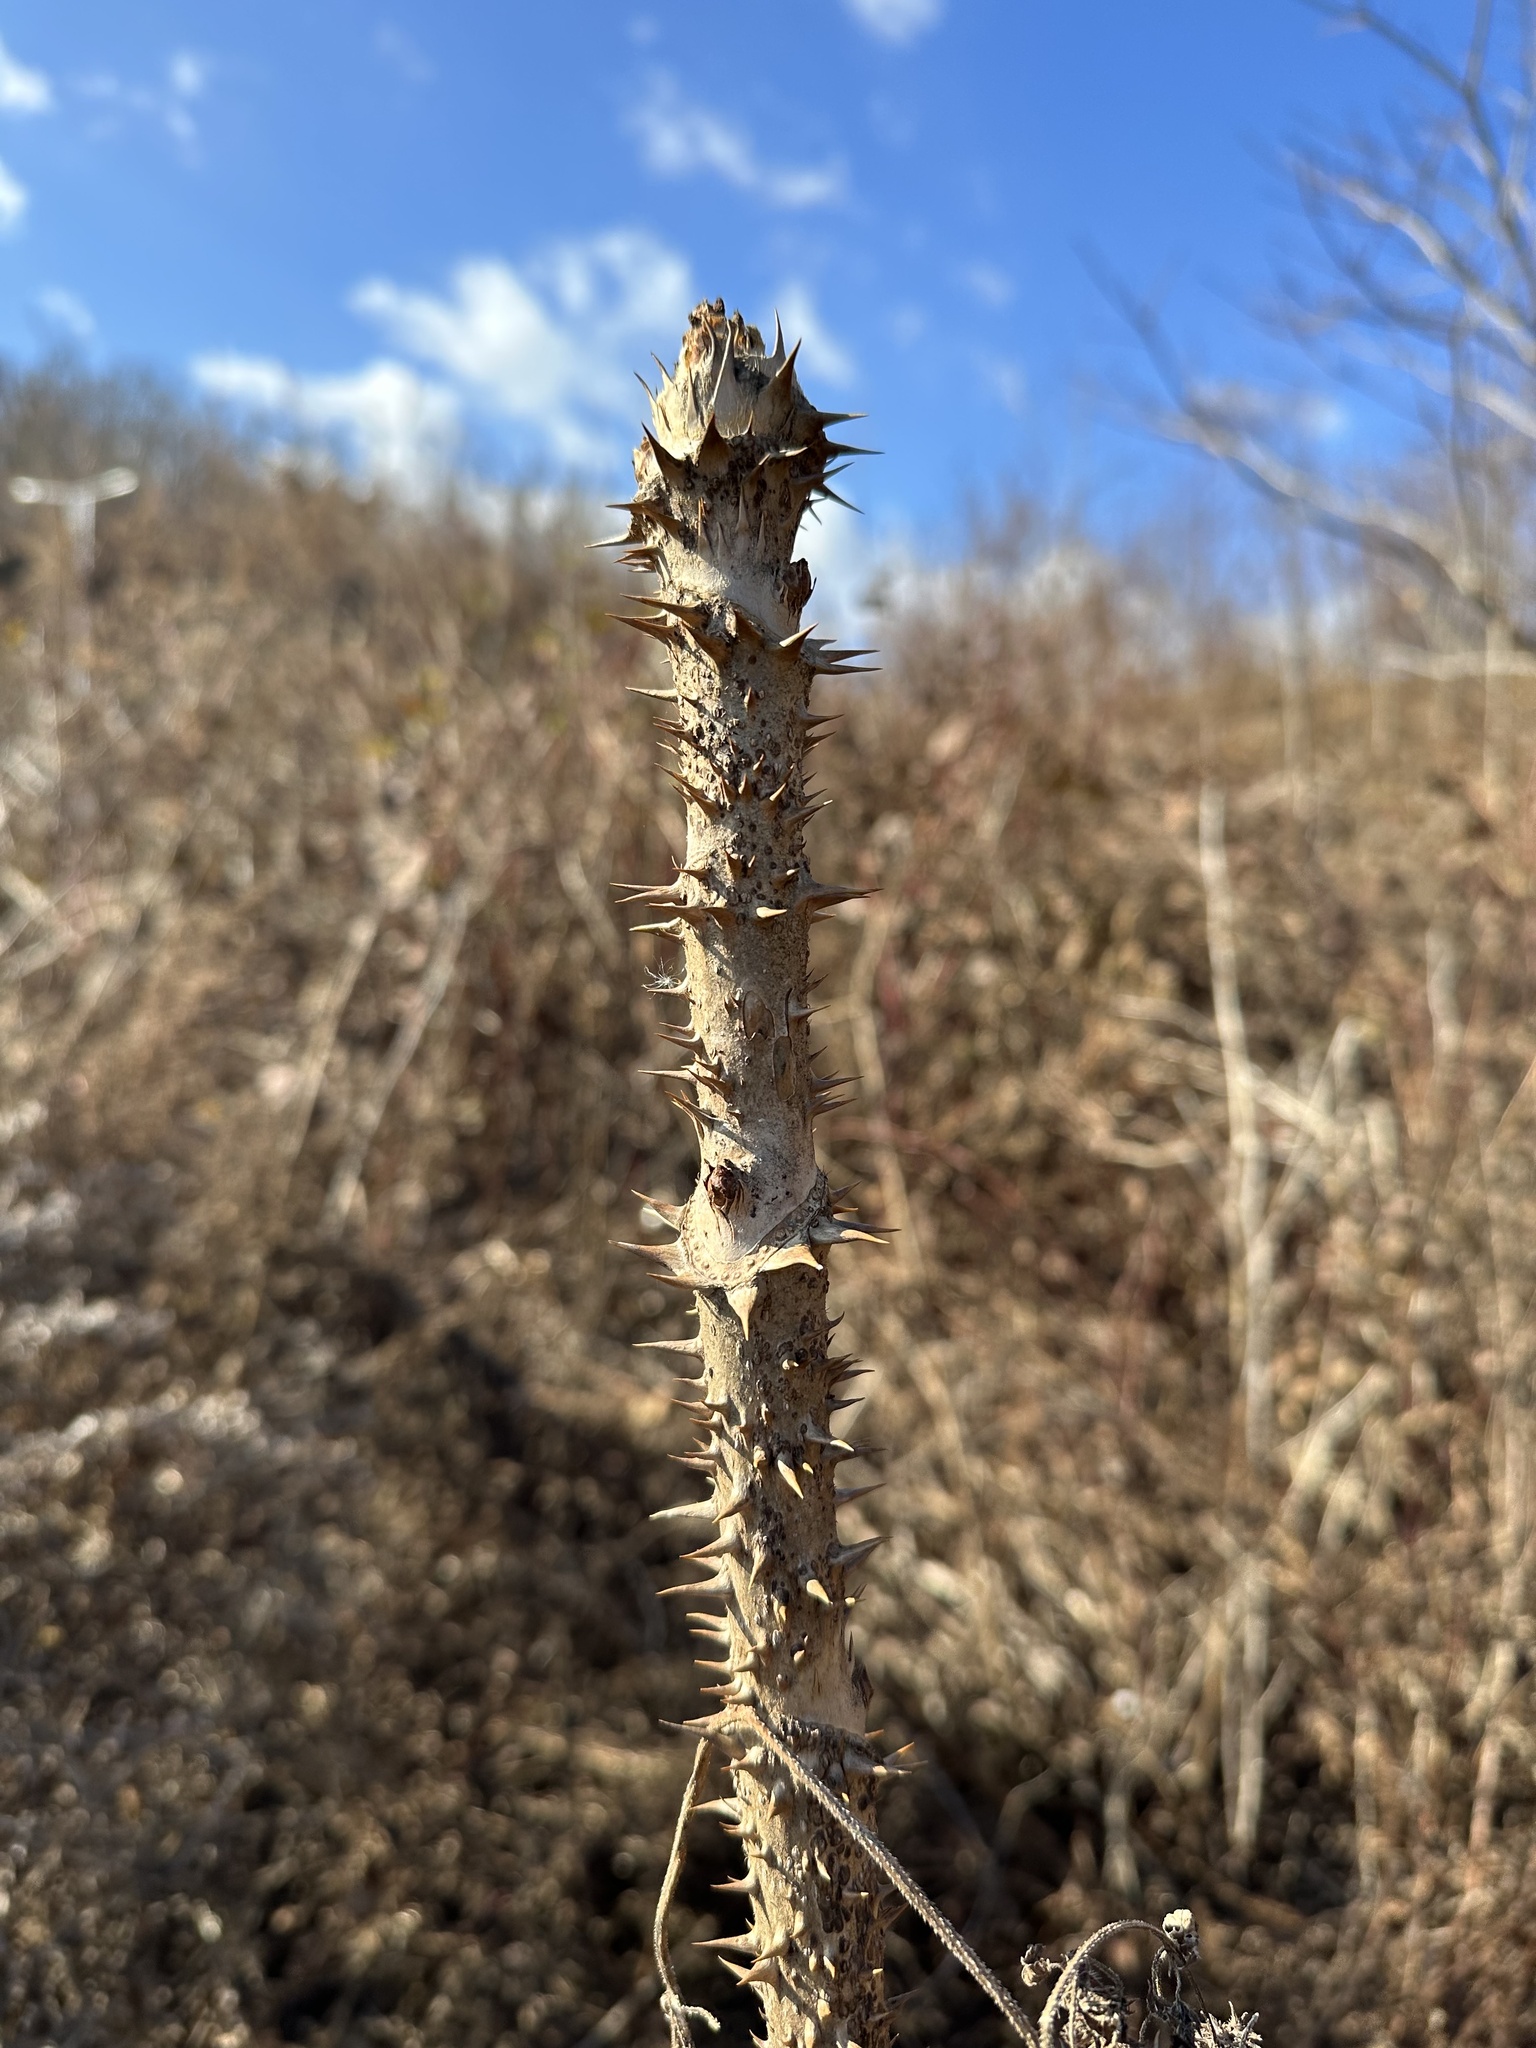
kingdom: Plantae
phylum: Tracheophyta
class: Magnoliopsida
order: Apiales
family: Araliaceae
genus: Aralia
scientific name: Aralia elata
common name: Japanese angelica-tree
